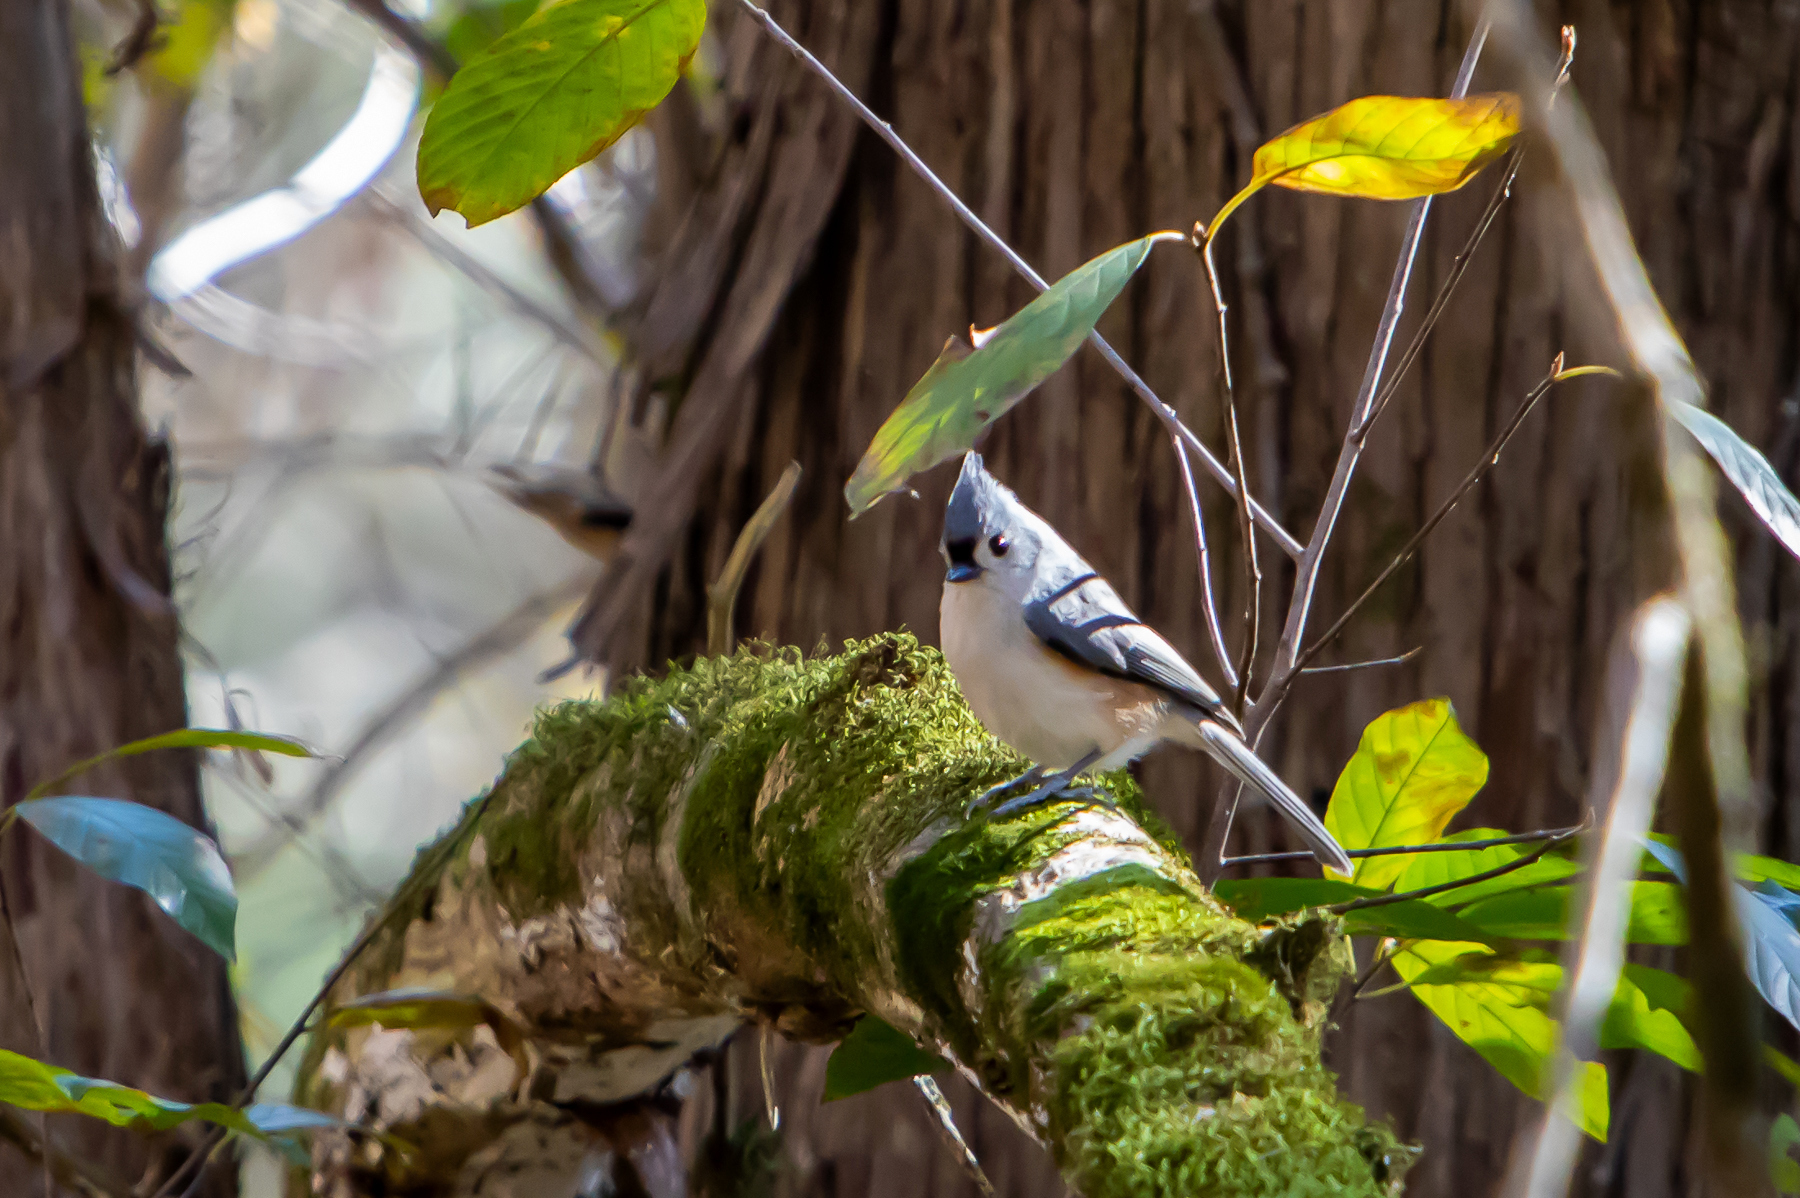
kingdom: Animalia
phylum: Chordata
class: Aves
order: Passeriformes
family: Paridae
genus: Baeolophus
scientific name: Baeolophus bicolor
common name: Tufted titmouse
